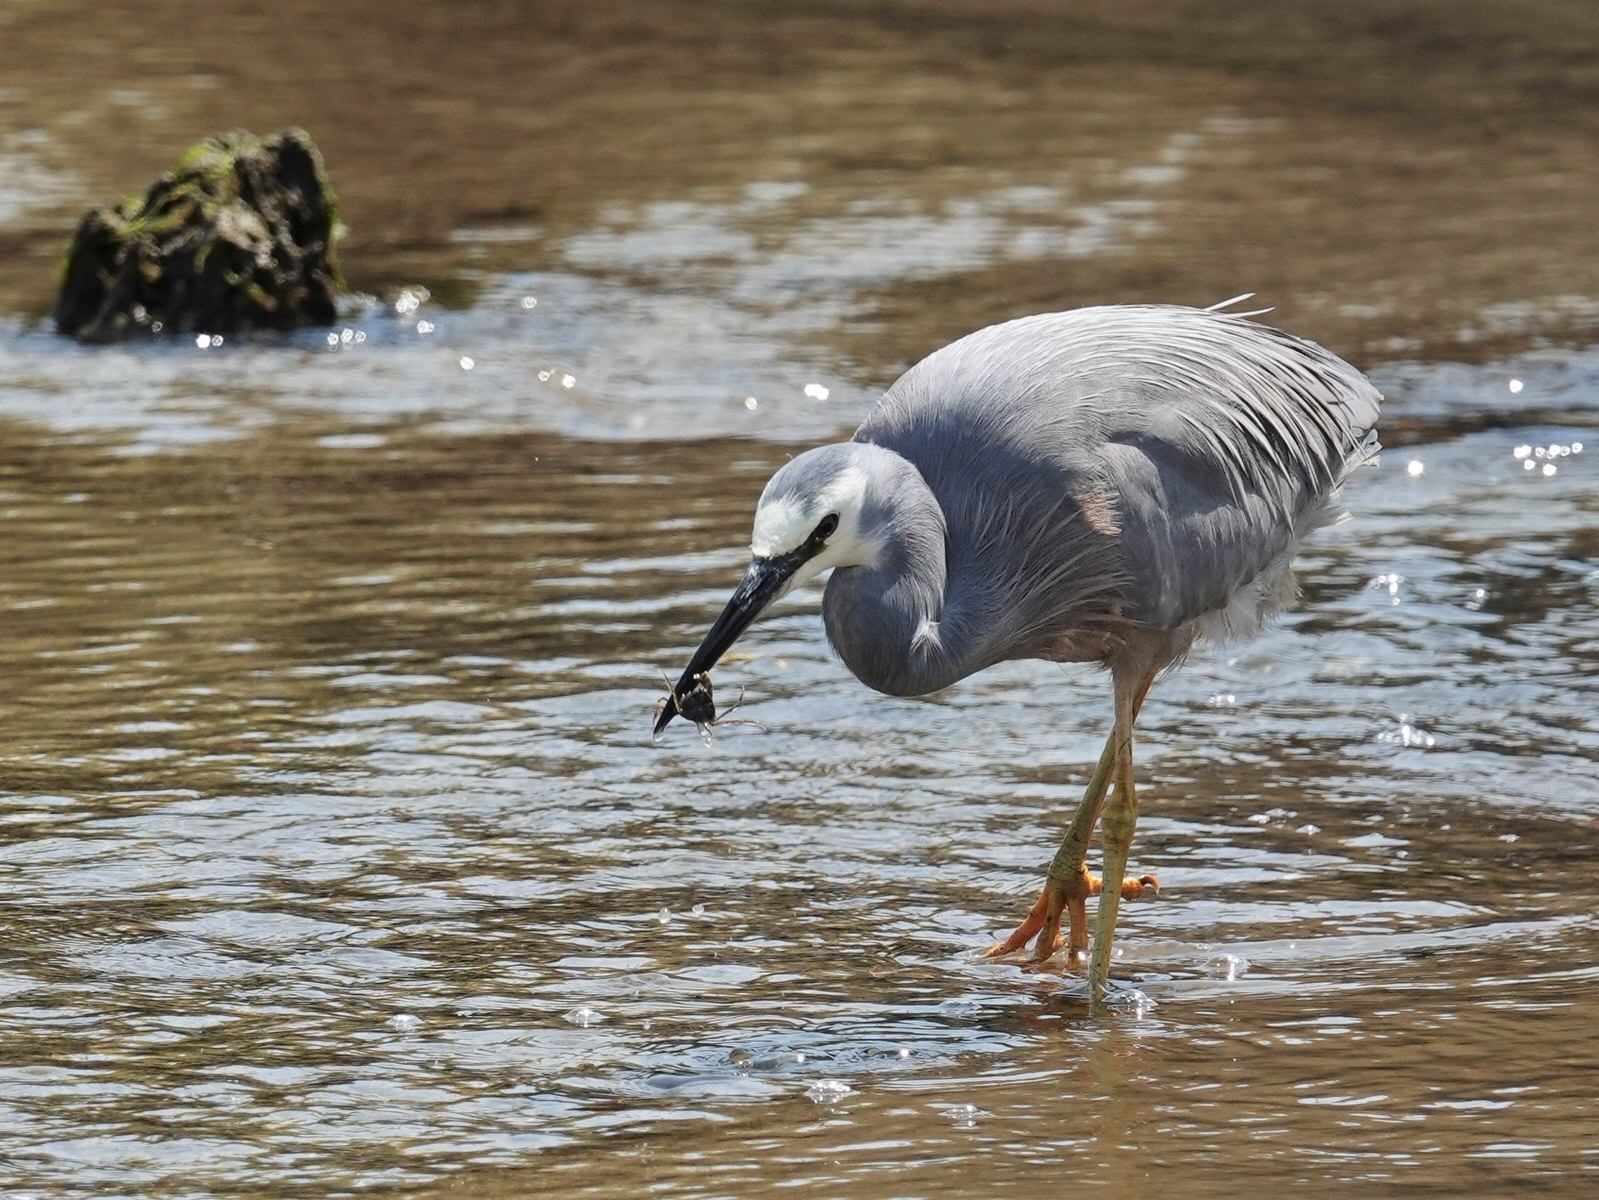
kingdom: Animalia
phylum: Chordata
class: Aves
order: Pelecaniformes
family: Ardeidae
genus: Egretta
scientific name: Egretta novaehollandiae
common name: White-faced heron
